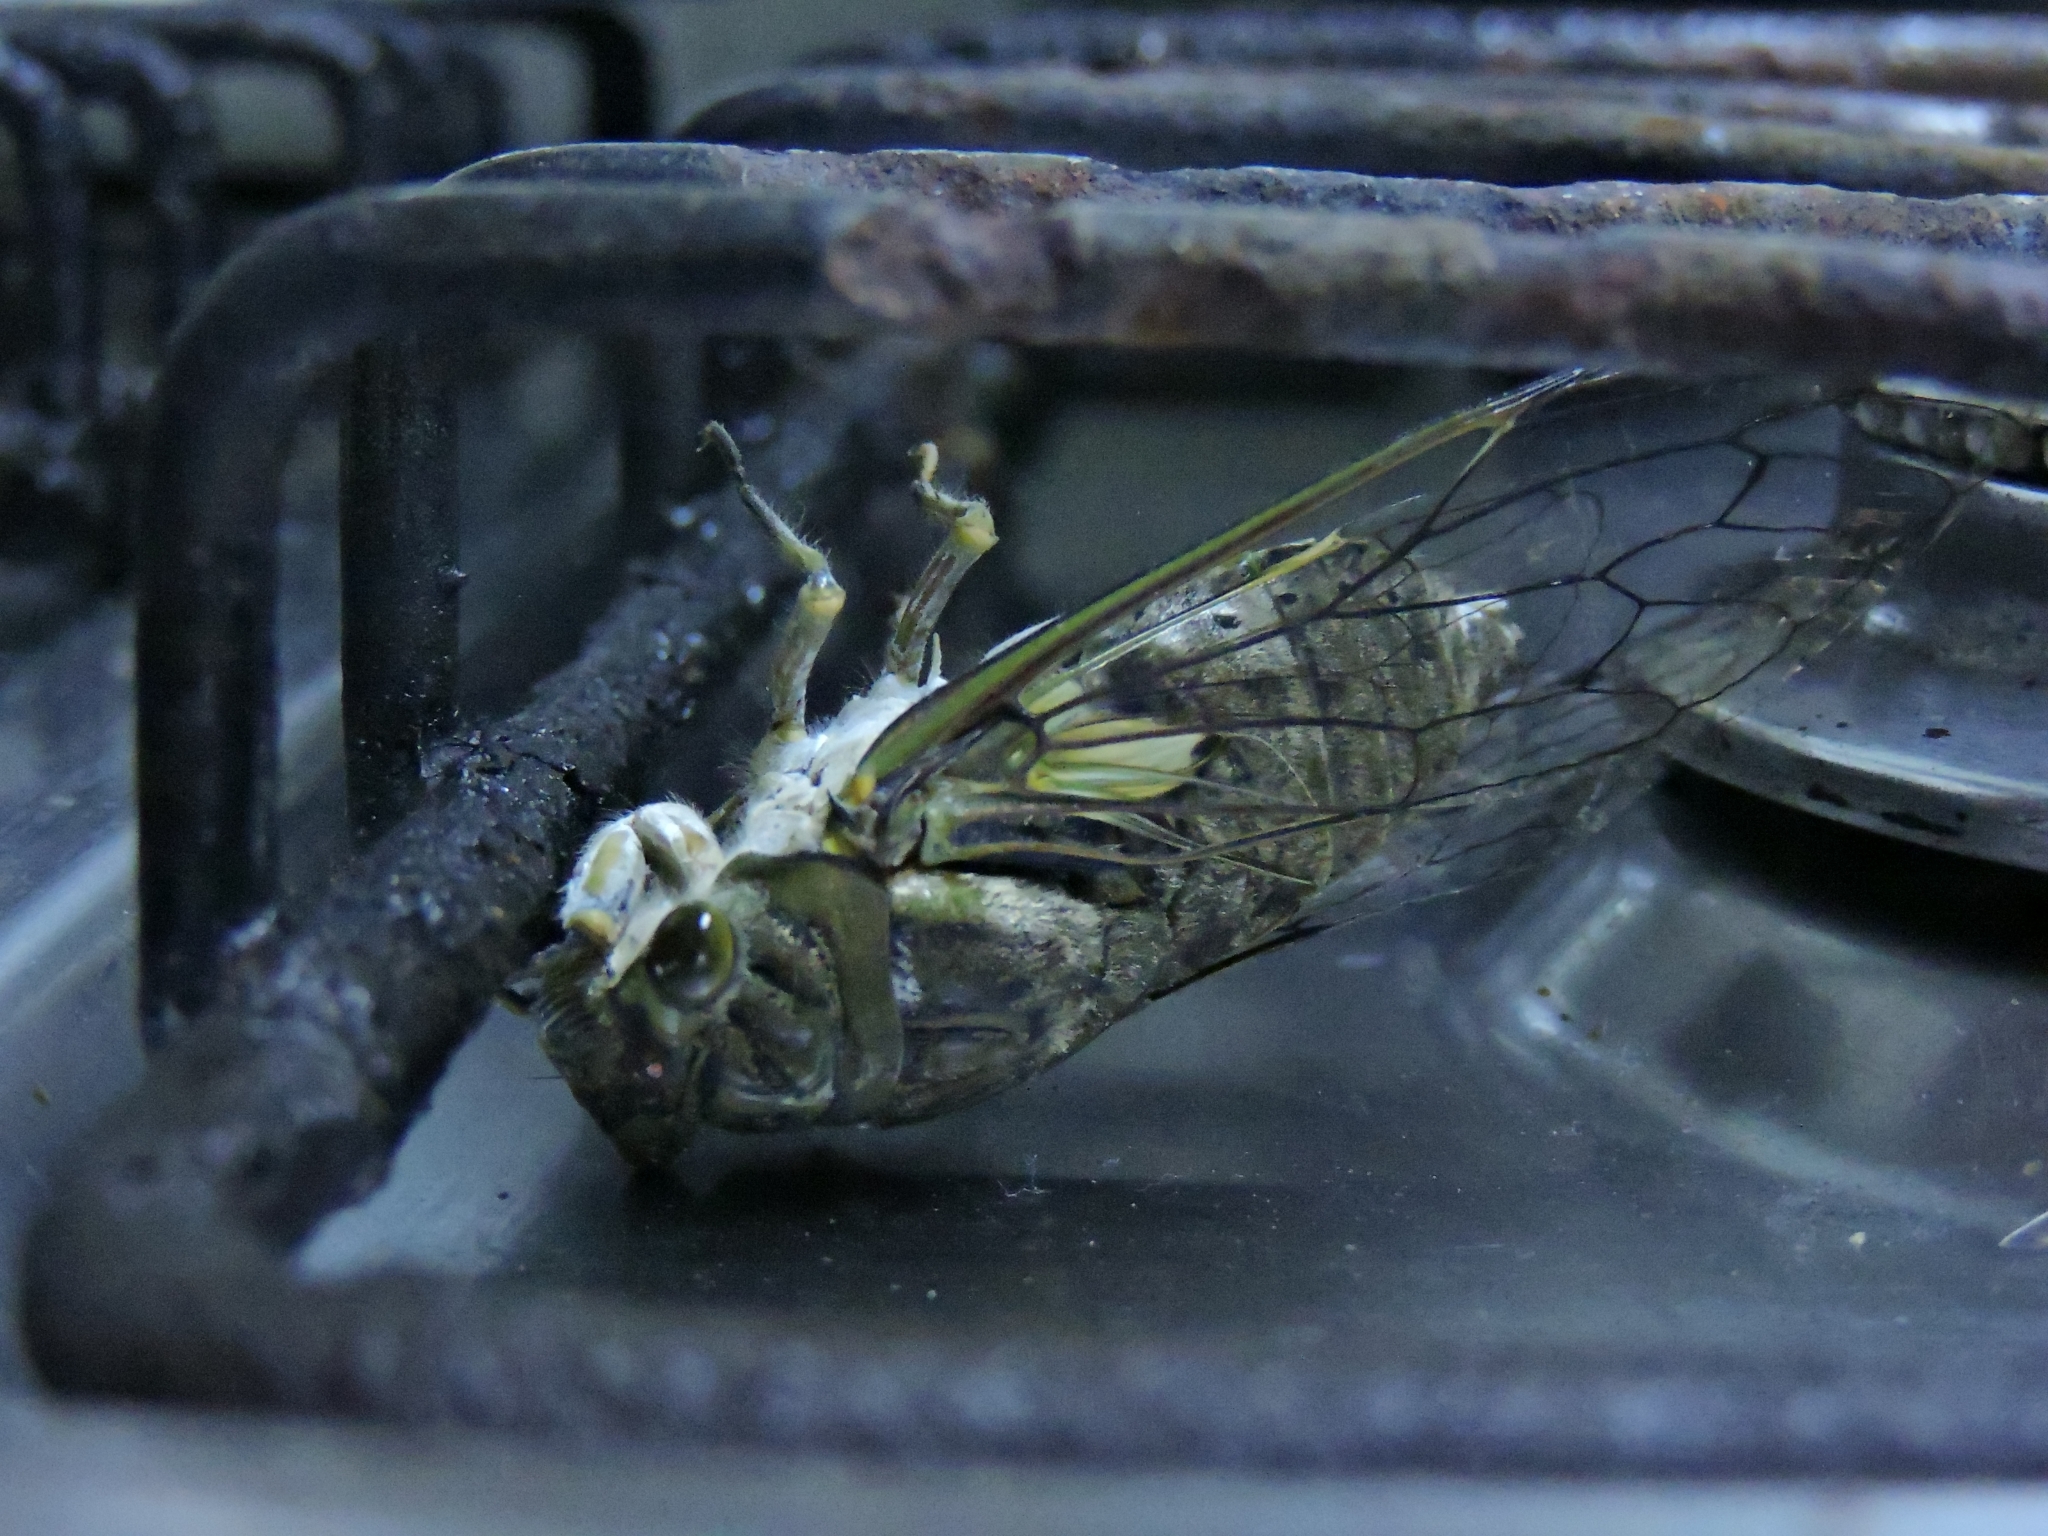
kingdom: Animalia
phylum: Arthropoda
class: Insecta
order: Hemiptera
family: Cicadidae
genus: Quesada
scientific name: Quesada gigas
